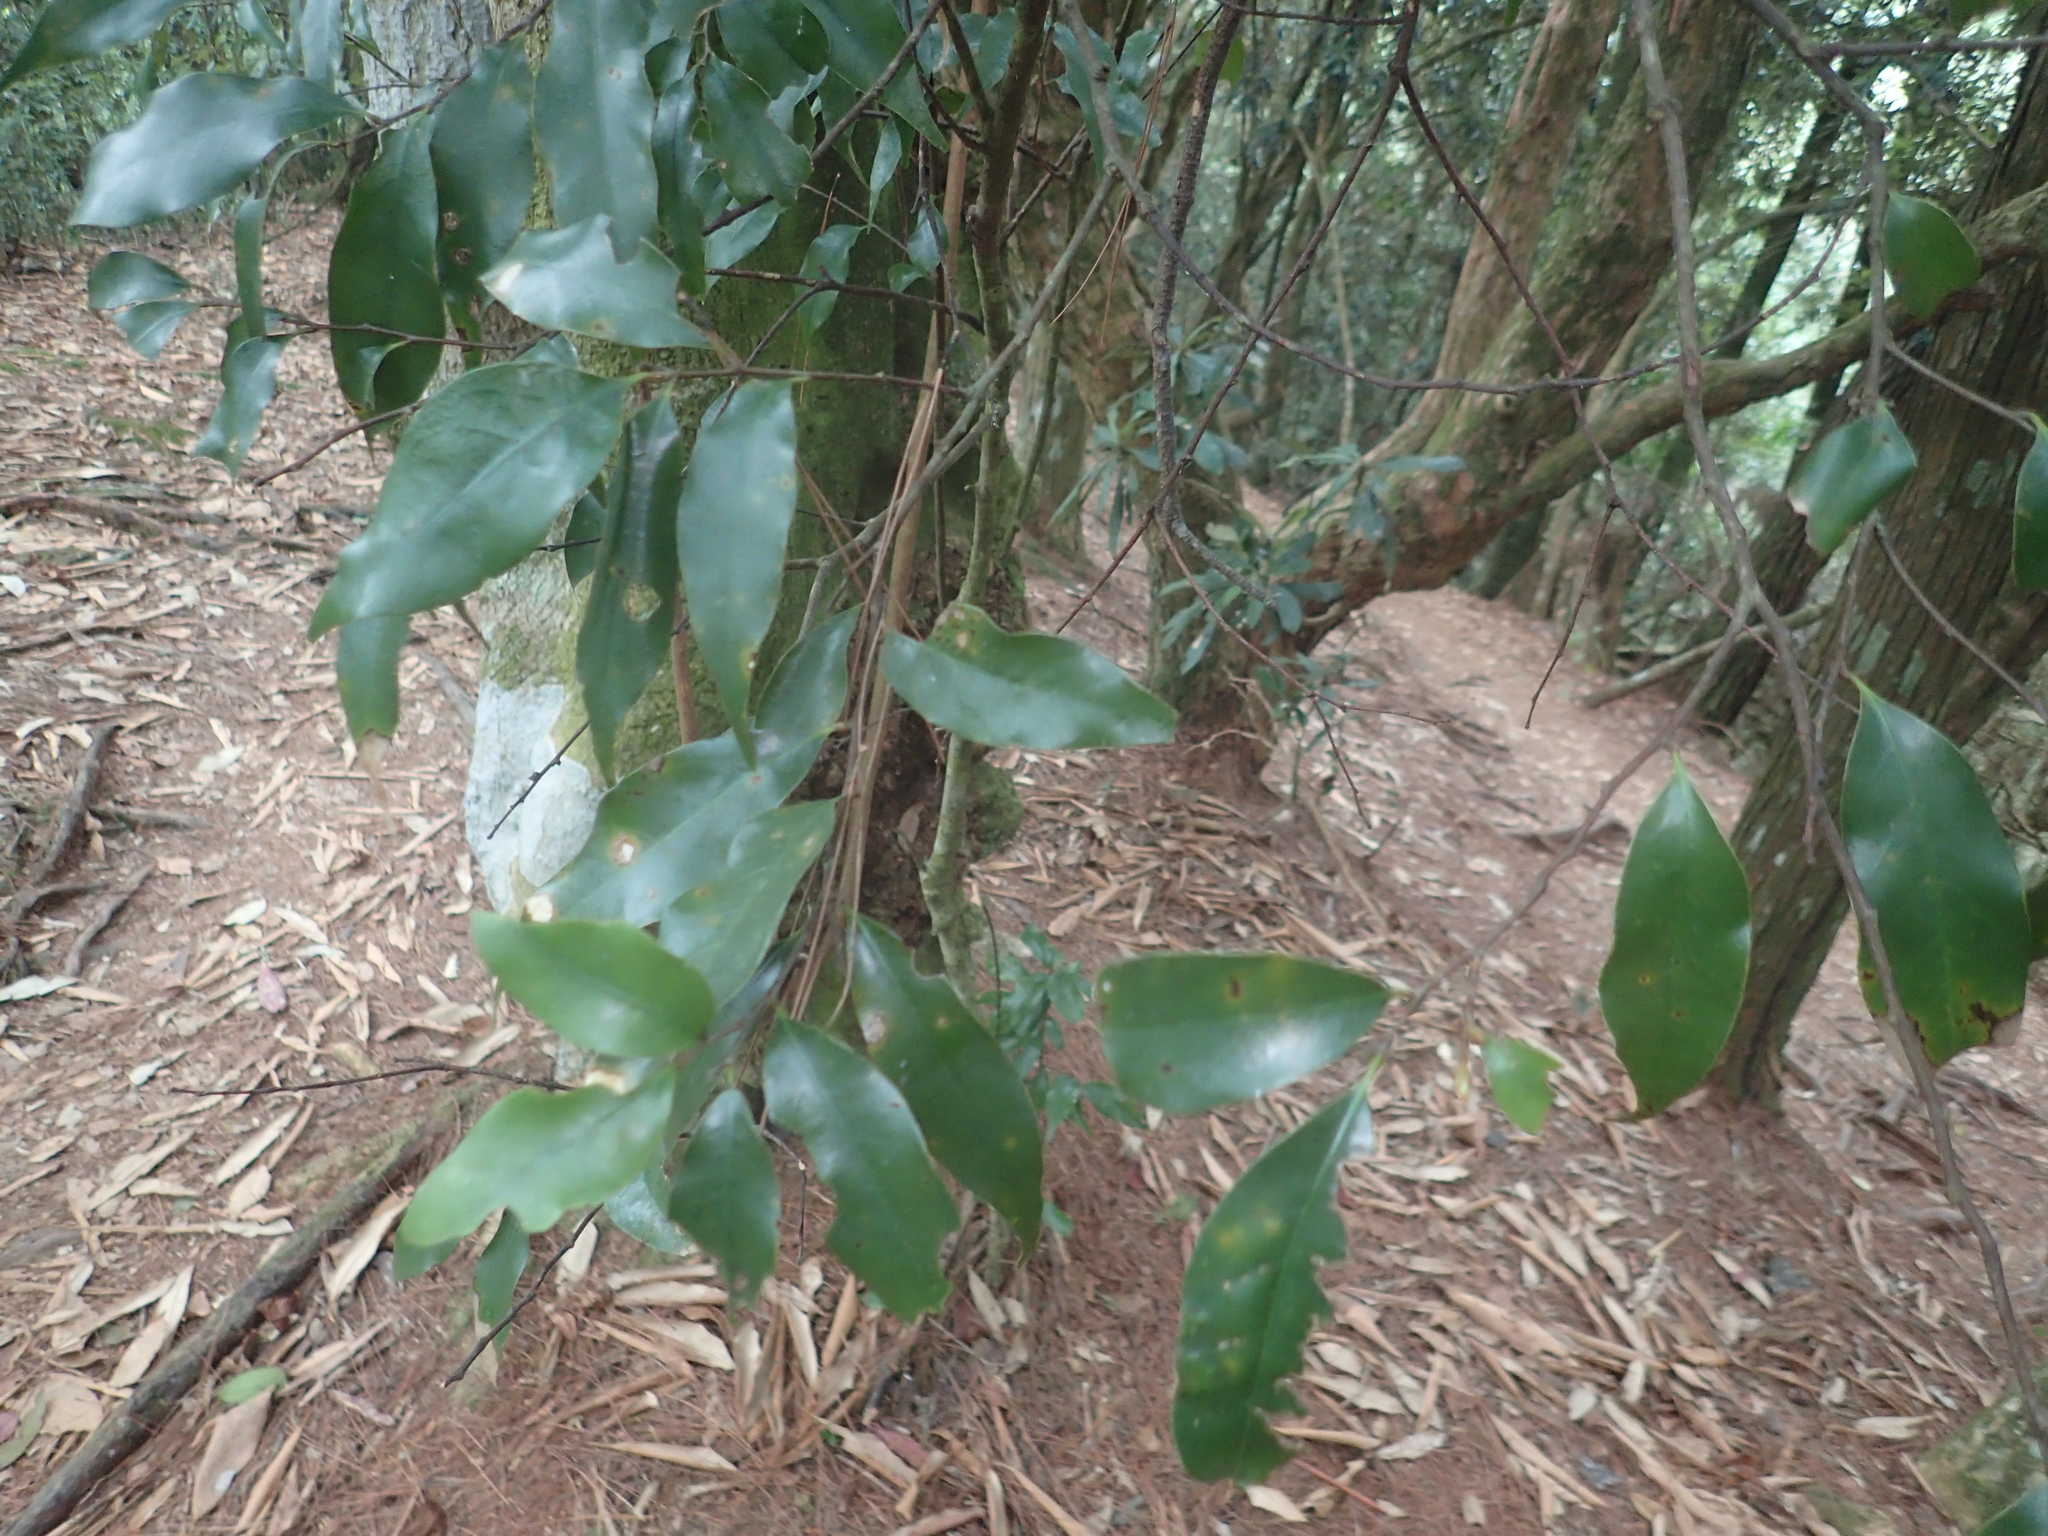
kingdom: Plantae
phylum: Tracheophyta
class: Magnoliopsida
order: Fagales
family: Fagaceae
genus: Castanopsis
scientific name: Castanopsis carlesii
